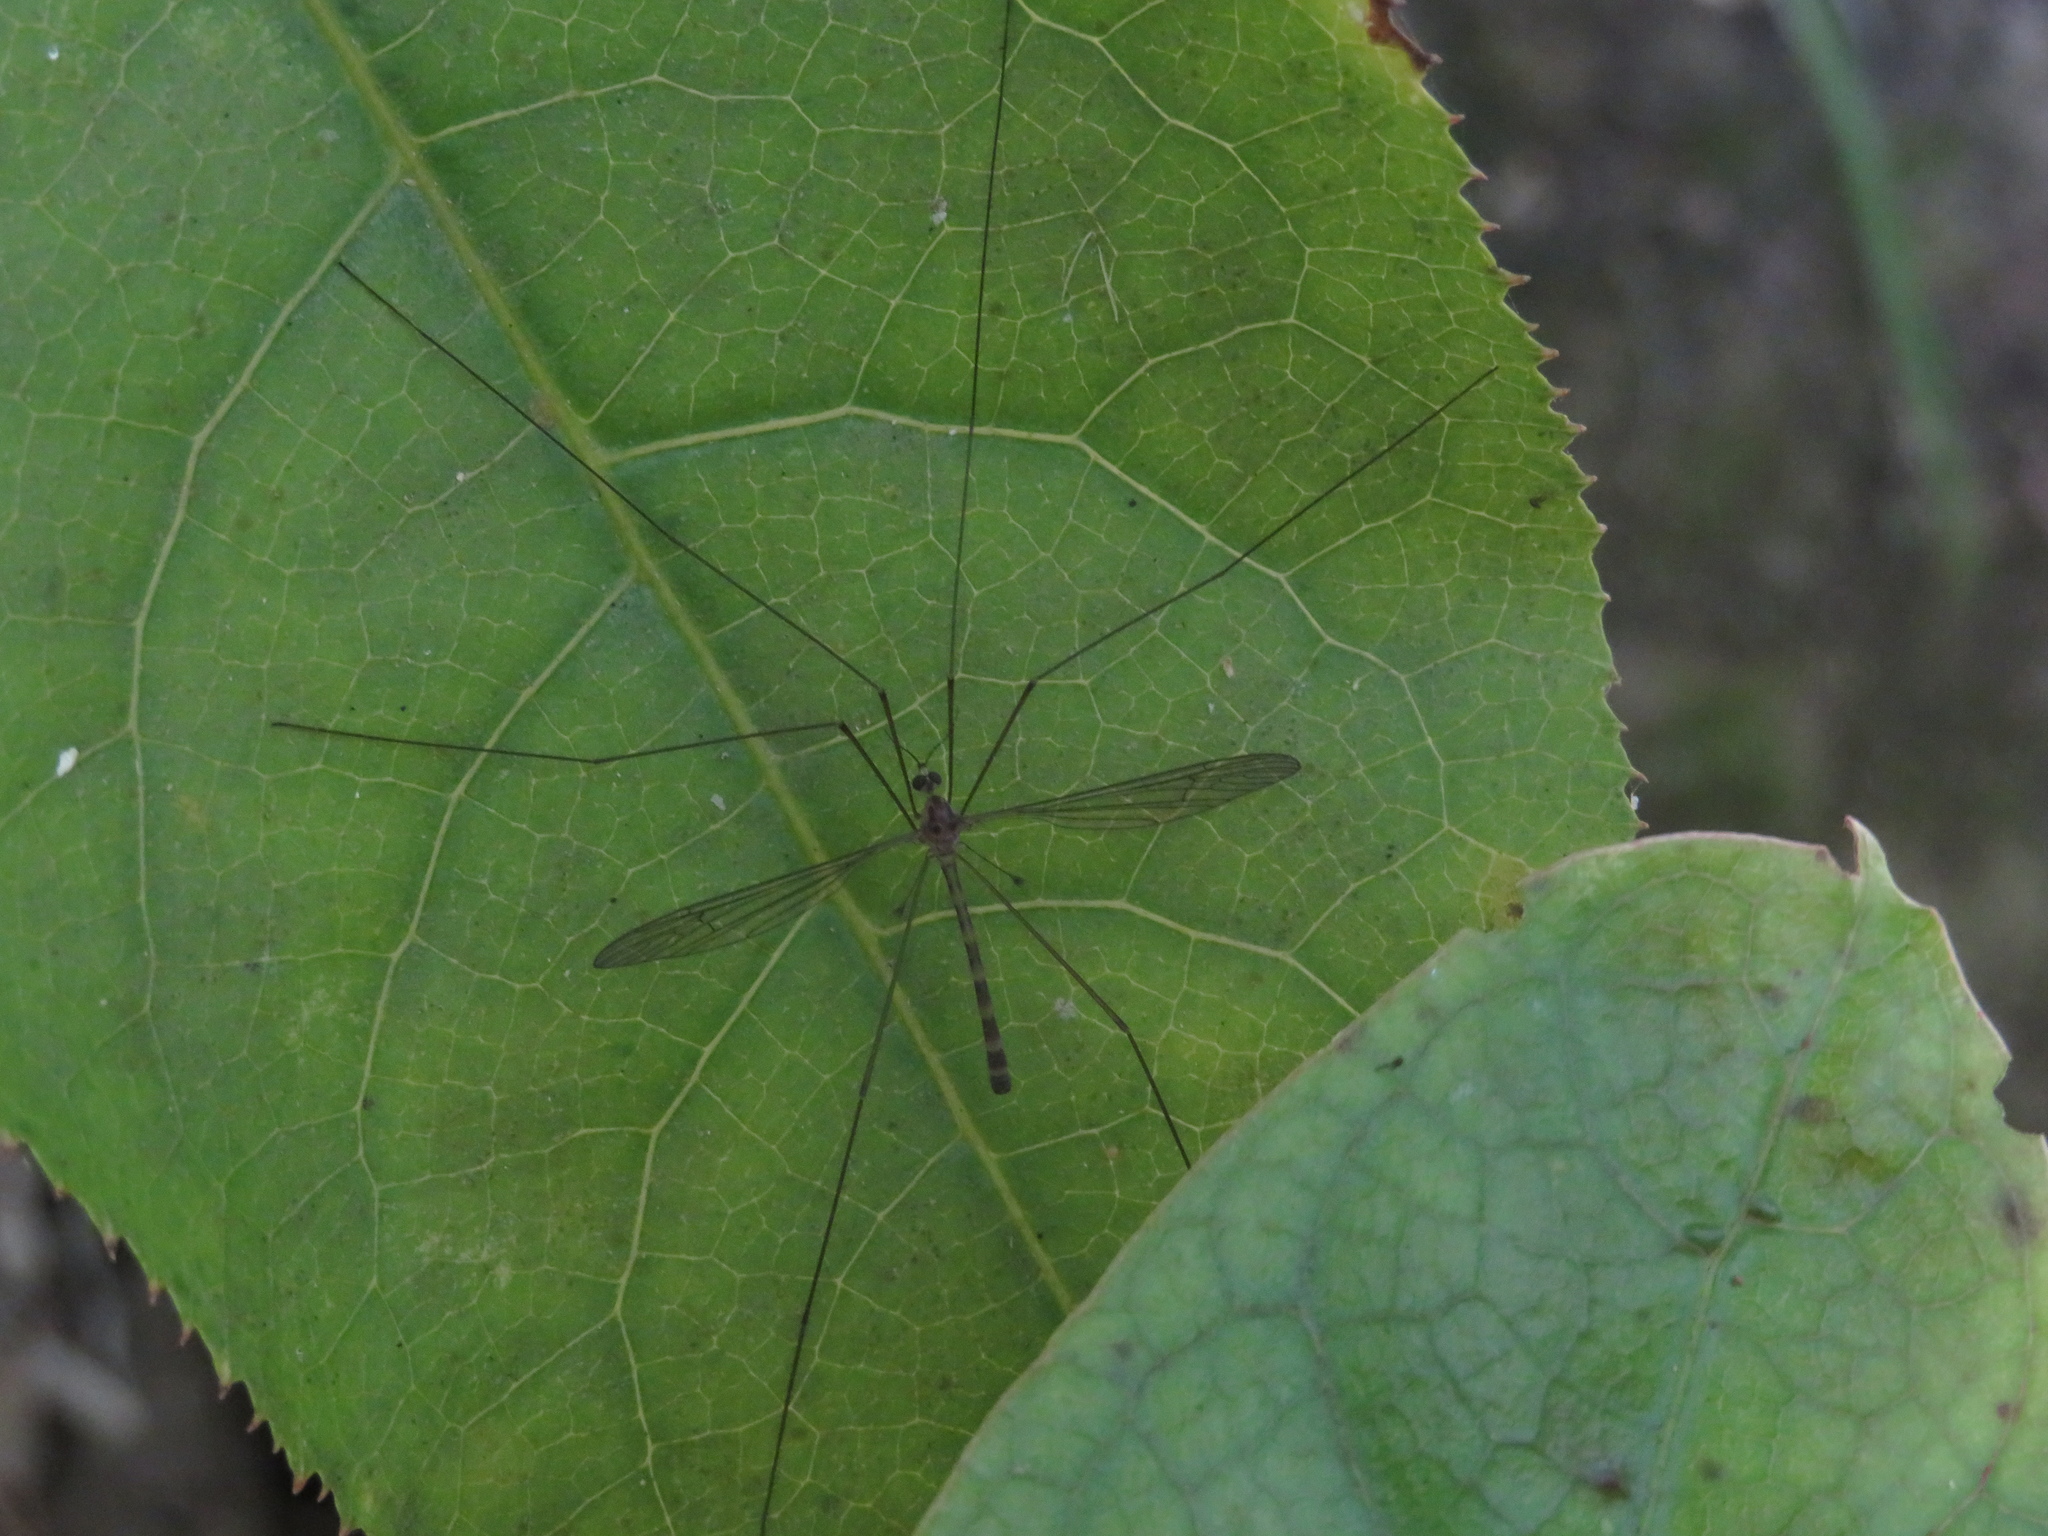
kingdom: Animalia
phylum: Arthropoda
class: Insecta
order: Diptera
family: Limoniidae
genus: Limnophilella
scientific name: Limnophilella delicatula
